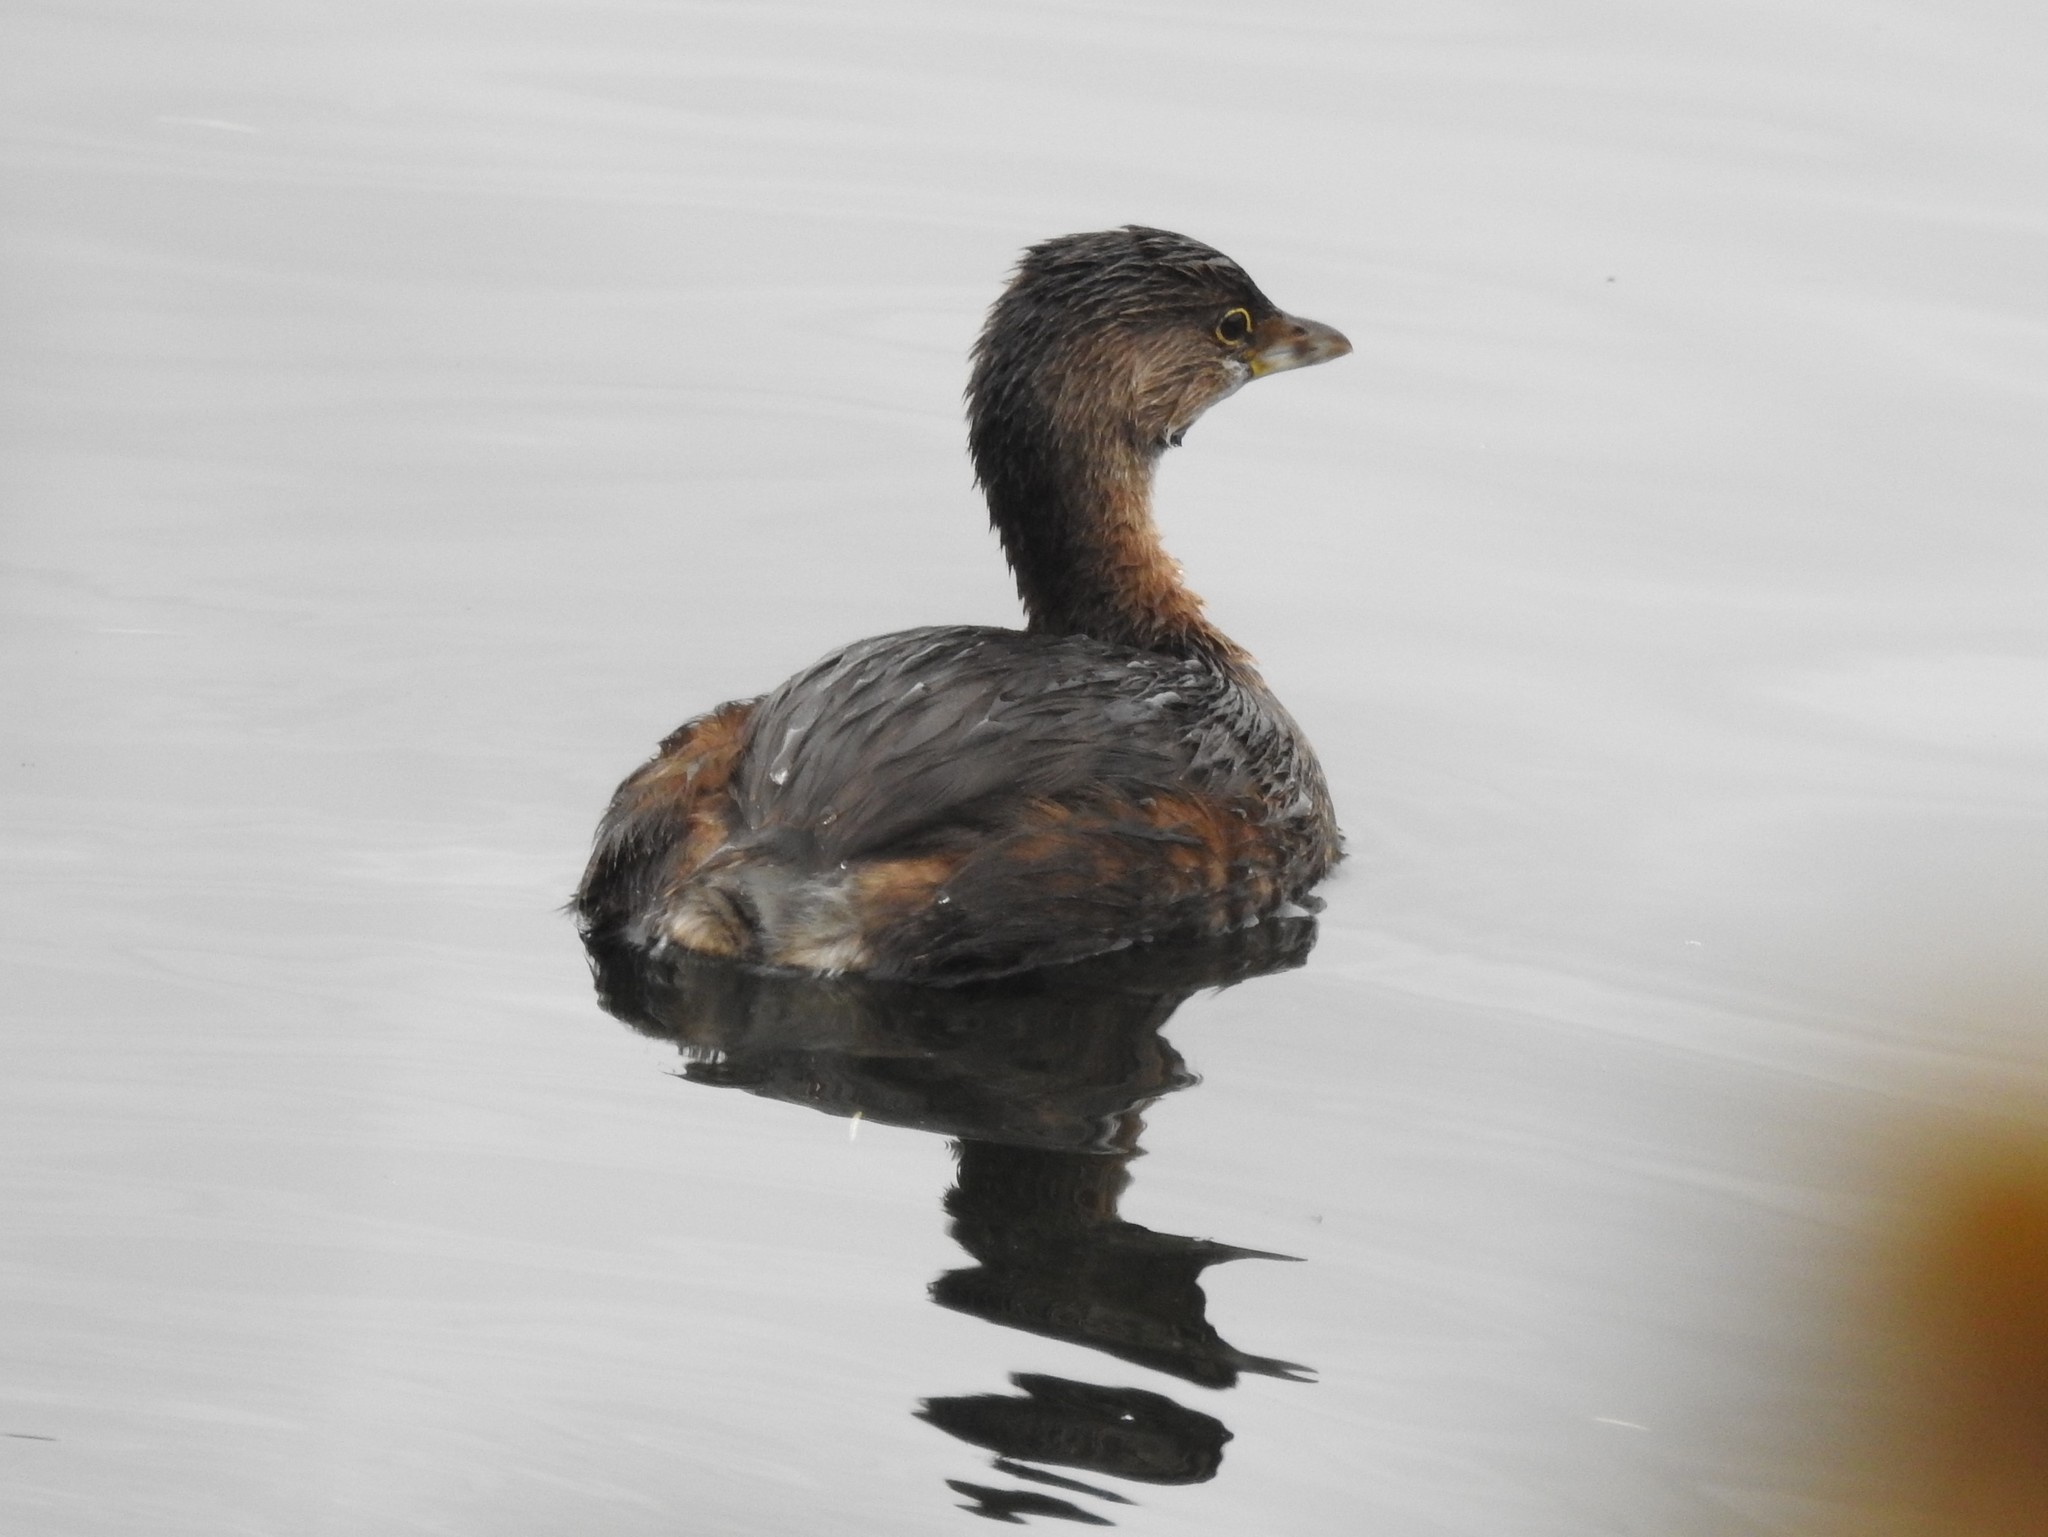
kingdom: Animalia
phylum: Chordata
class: Aves
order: Podicipediformes
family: Podicipedidae
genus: Podilymbus
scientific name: Podilymbus podiceps
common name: Pied-billed grebe
